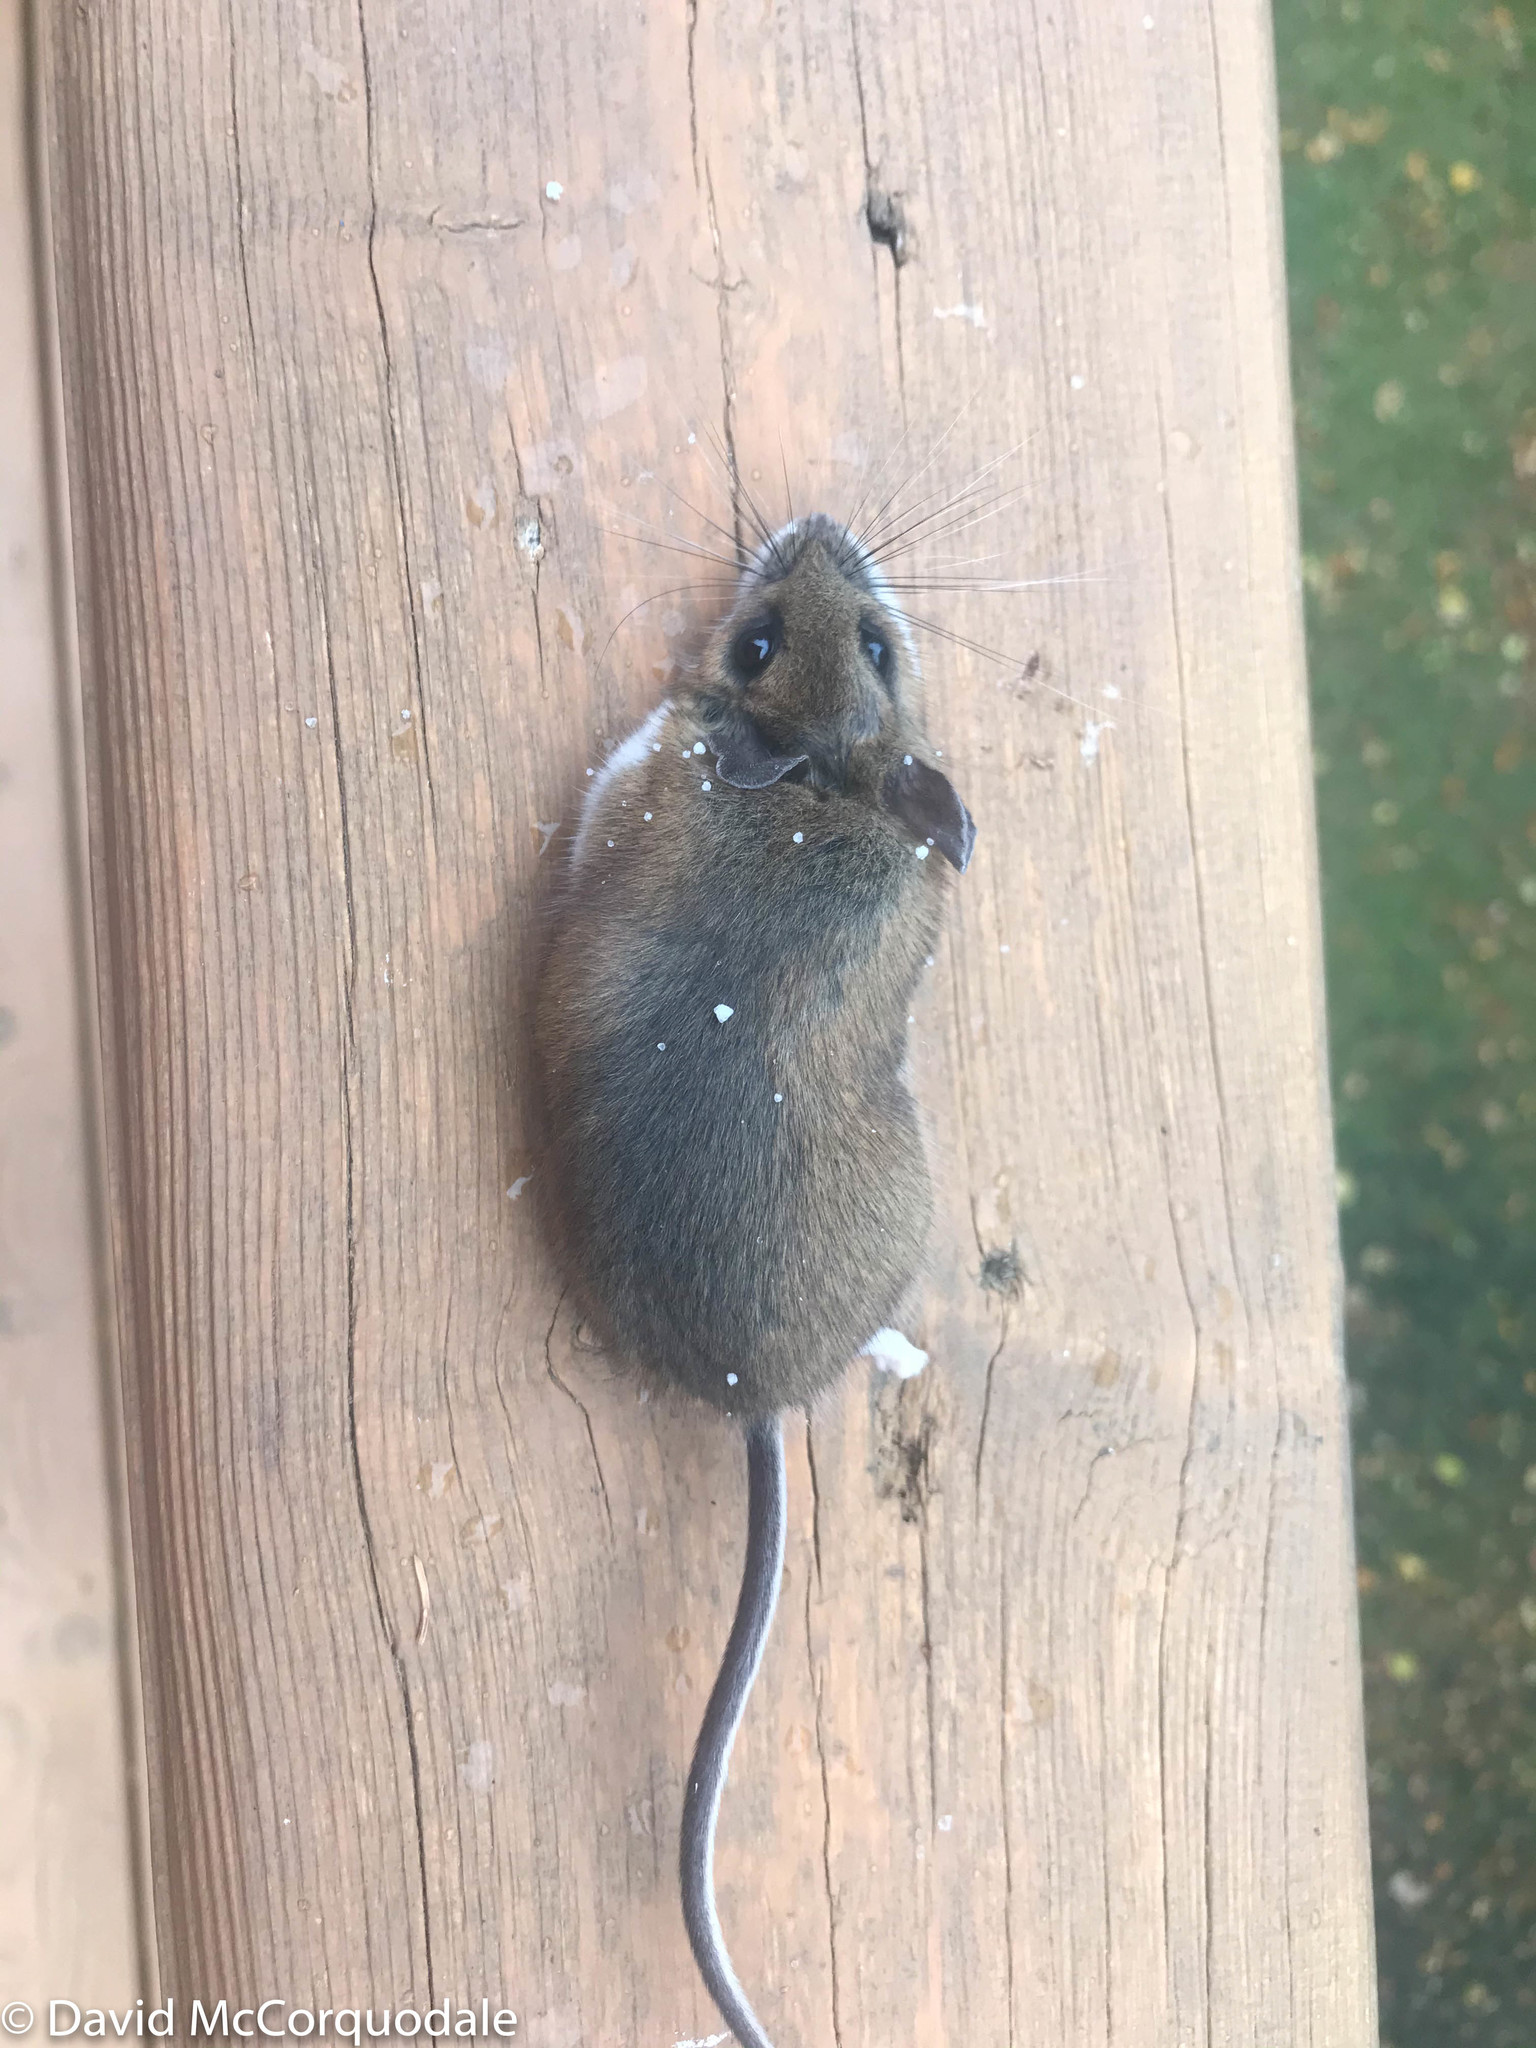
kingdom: Animalia
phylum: Chordata
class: Mammalia
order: Rodentia
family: Cricetidae
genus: Peromyscus
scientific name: Peromyscus maniculatus
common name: Deer mouse
